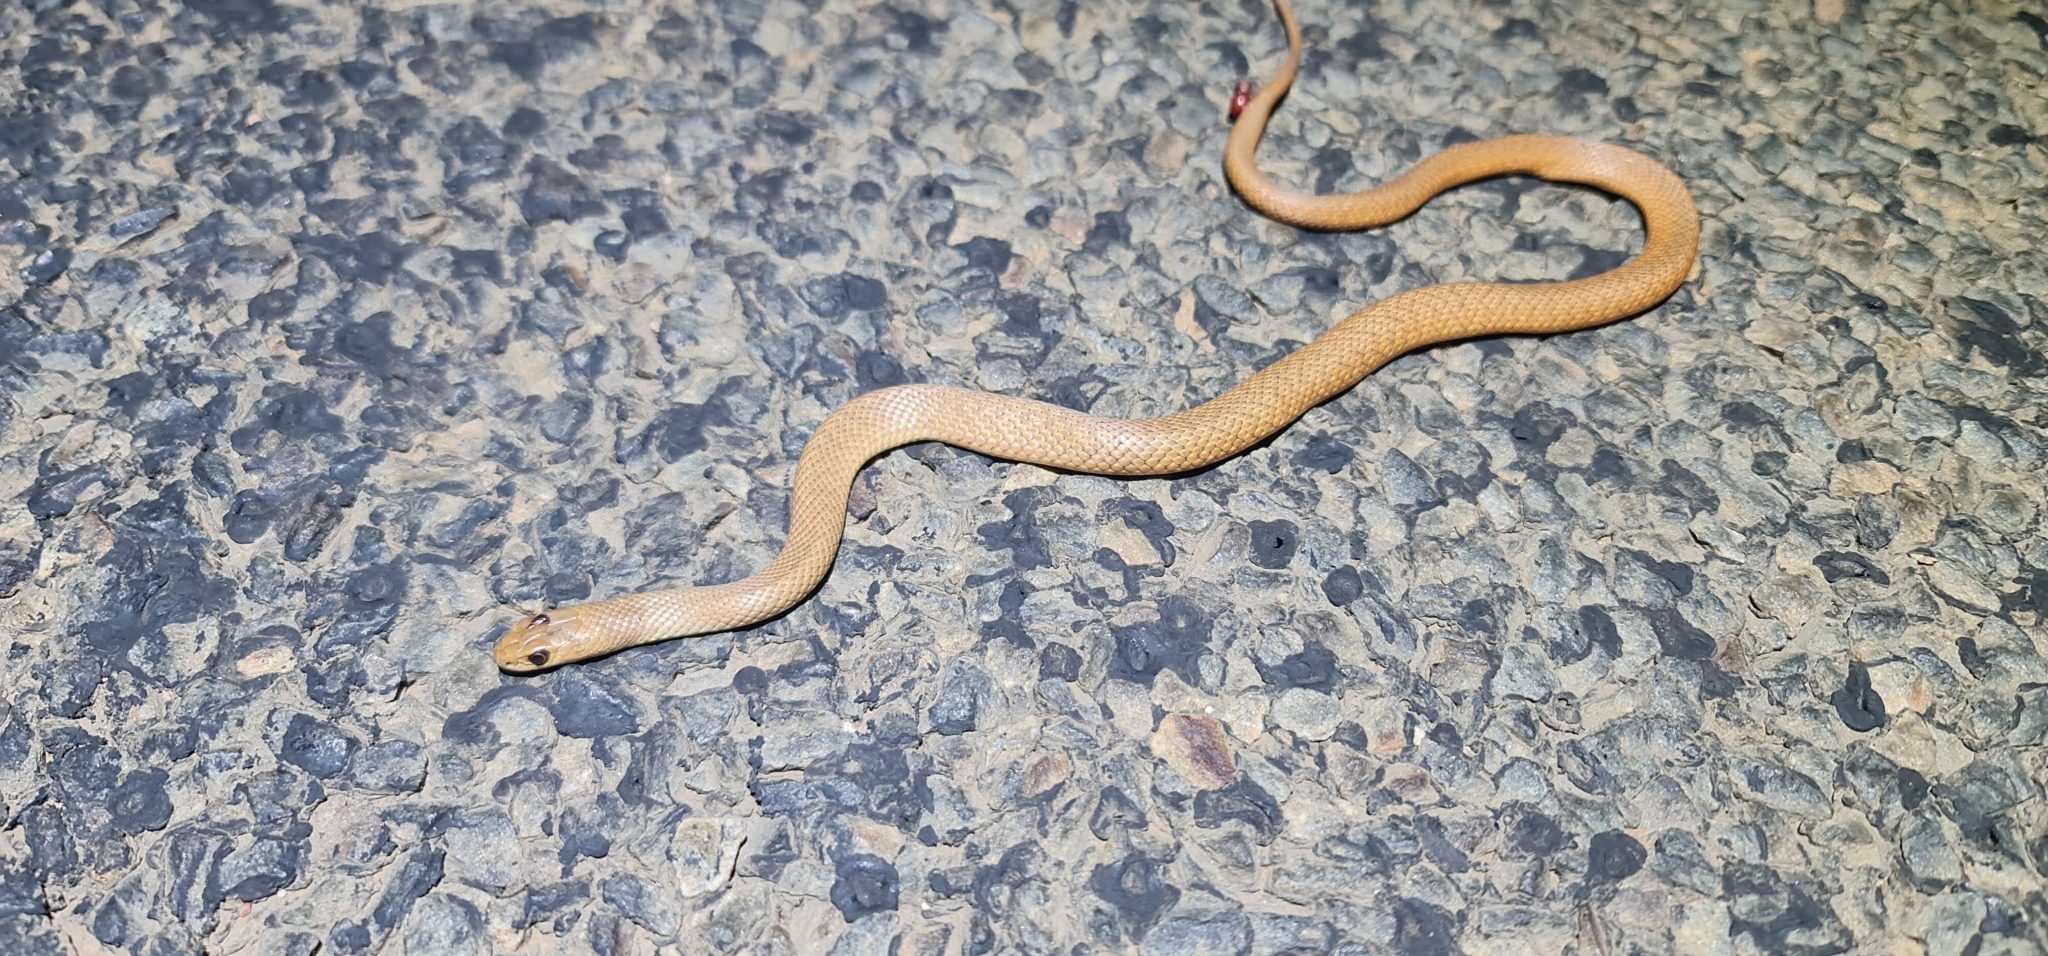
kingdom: Animalia
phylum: Chordata
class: Squamata
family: Elapidae
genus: Pseudonaja
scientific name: Pseudonaja textilis
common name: Eastern brown snake
